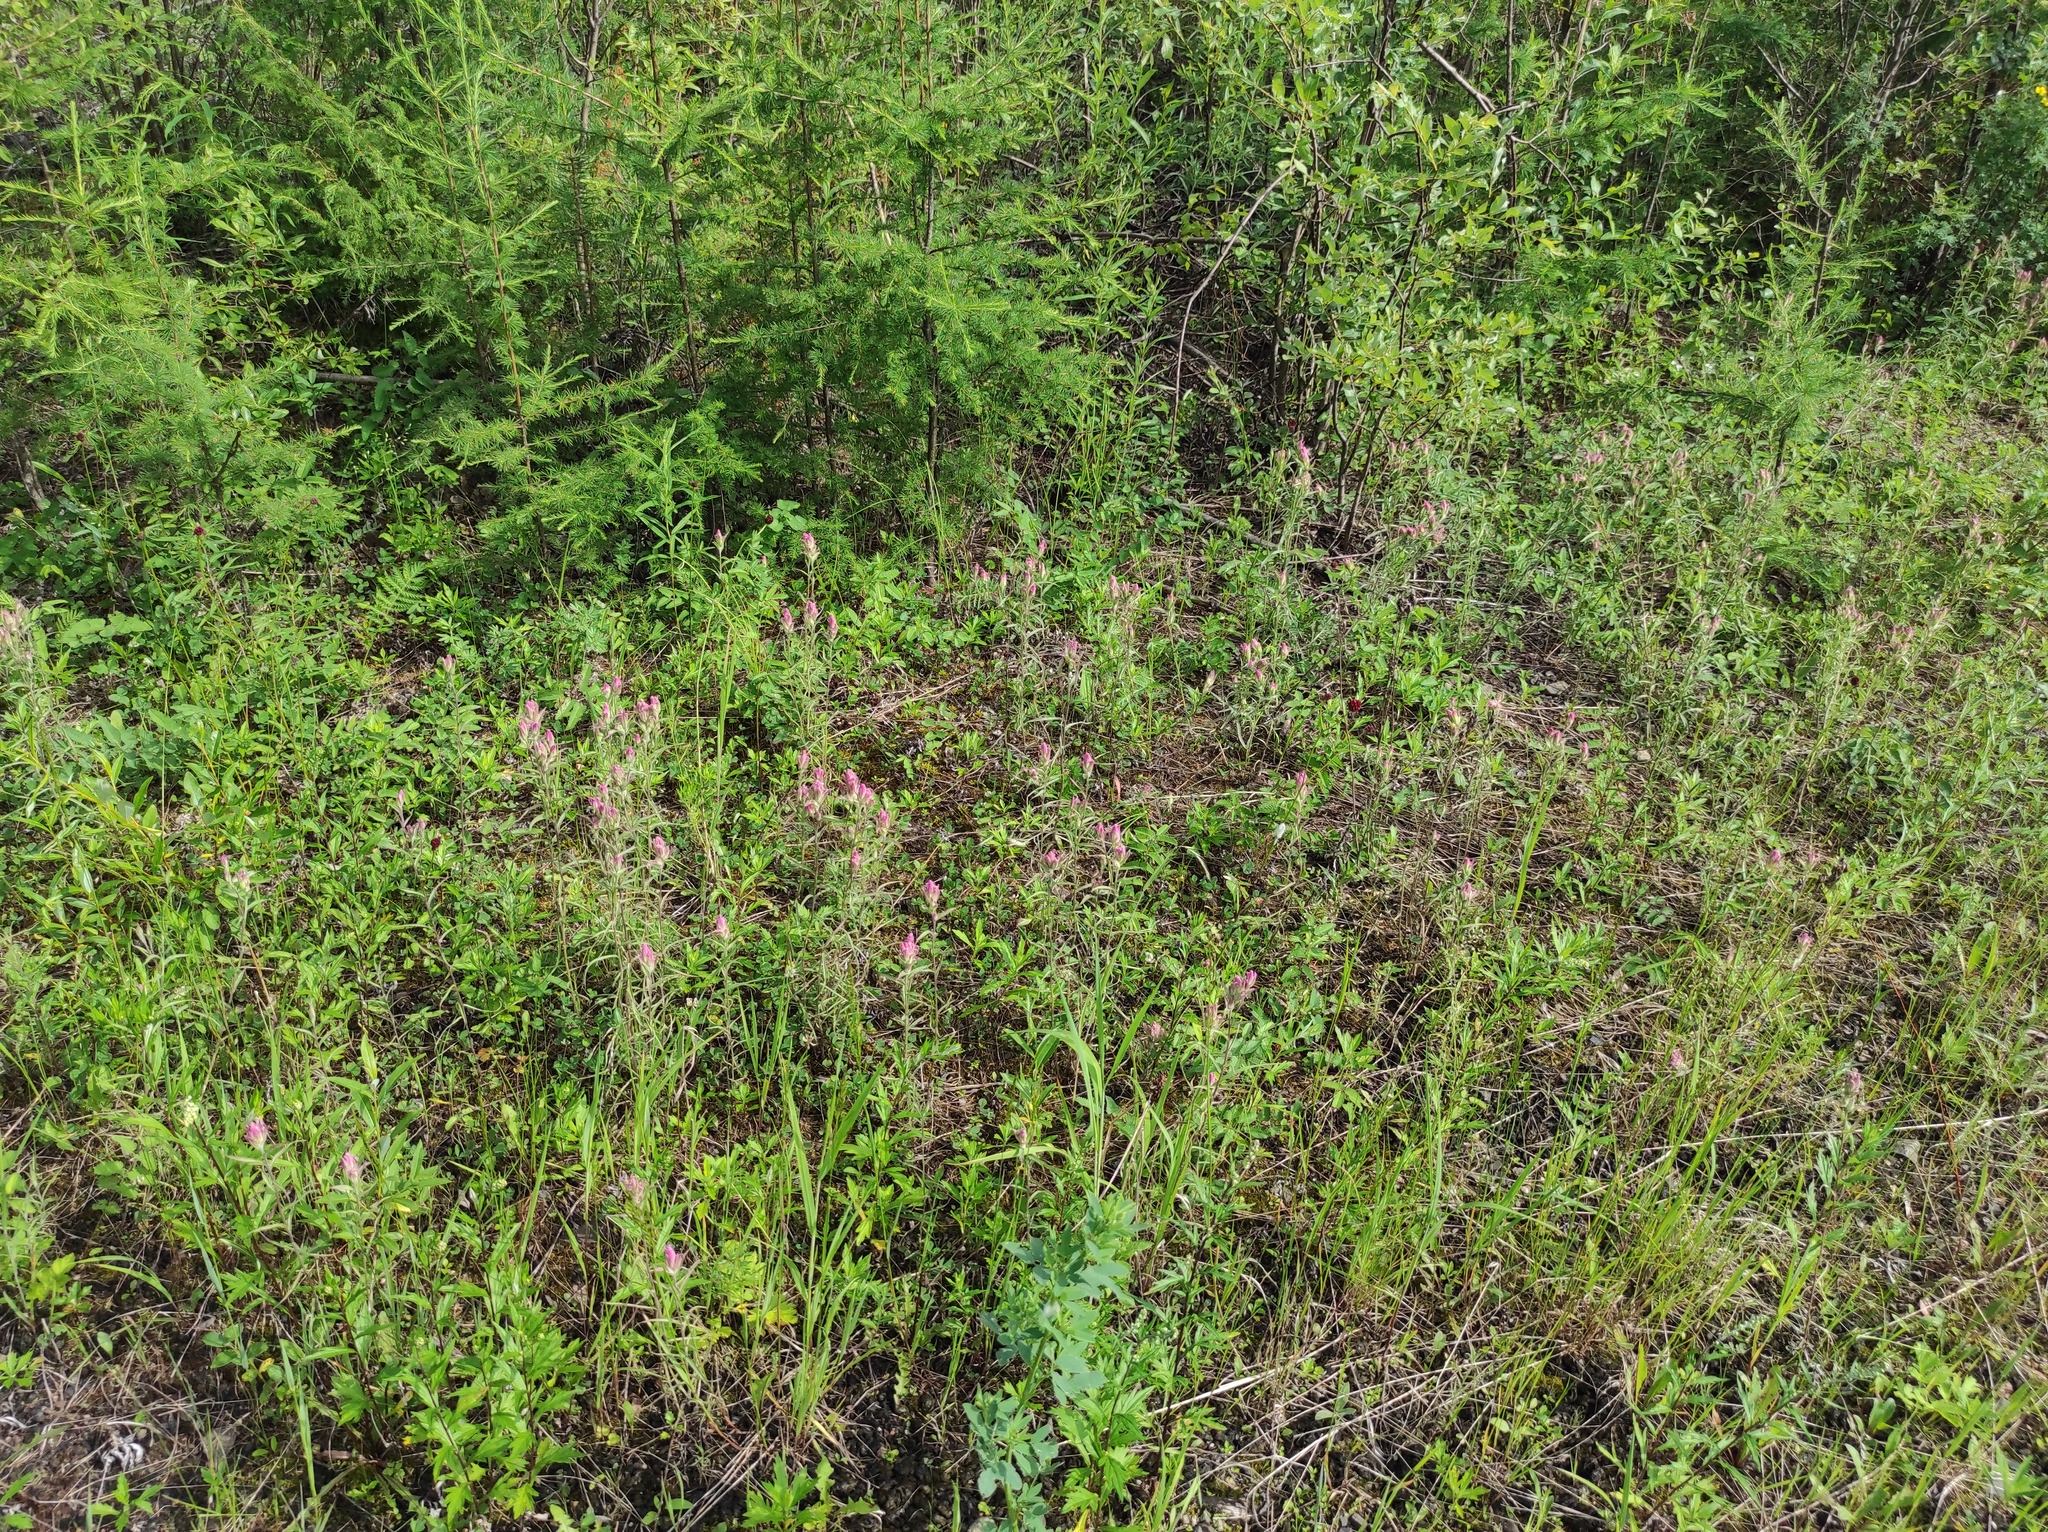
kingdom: Plantae
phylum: Tracheophyta
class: Magnoliopsida
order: Lamiales
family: Orobanchaceae
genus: Castilleja
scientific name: Castilleja rubra
